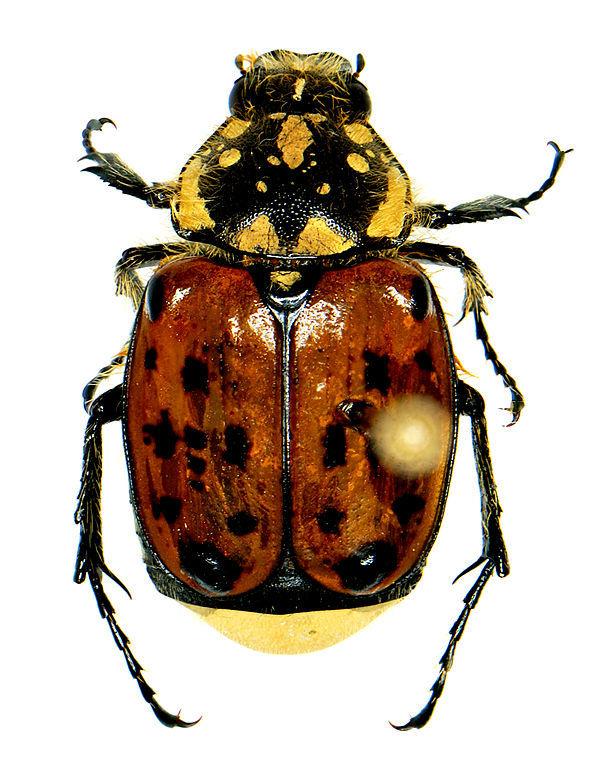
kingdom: Animalia
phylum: Arthropoda
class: Insecta
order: Coleoptera
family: Scarabaeidae
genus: Gnorimella
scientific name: Gnorimella maculosa
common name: Maculate flower beetle
